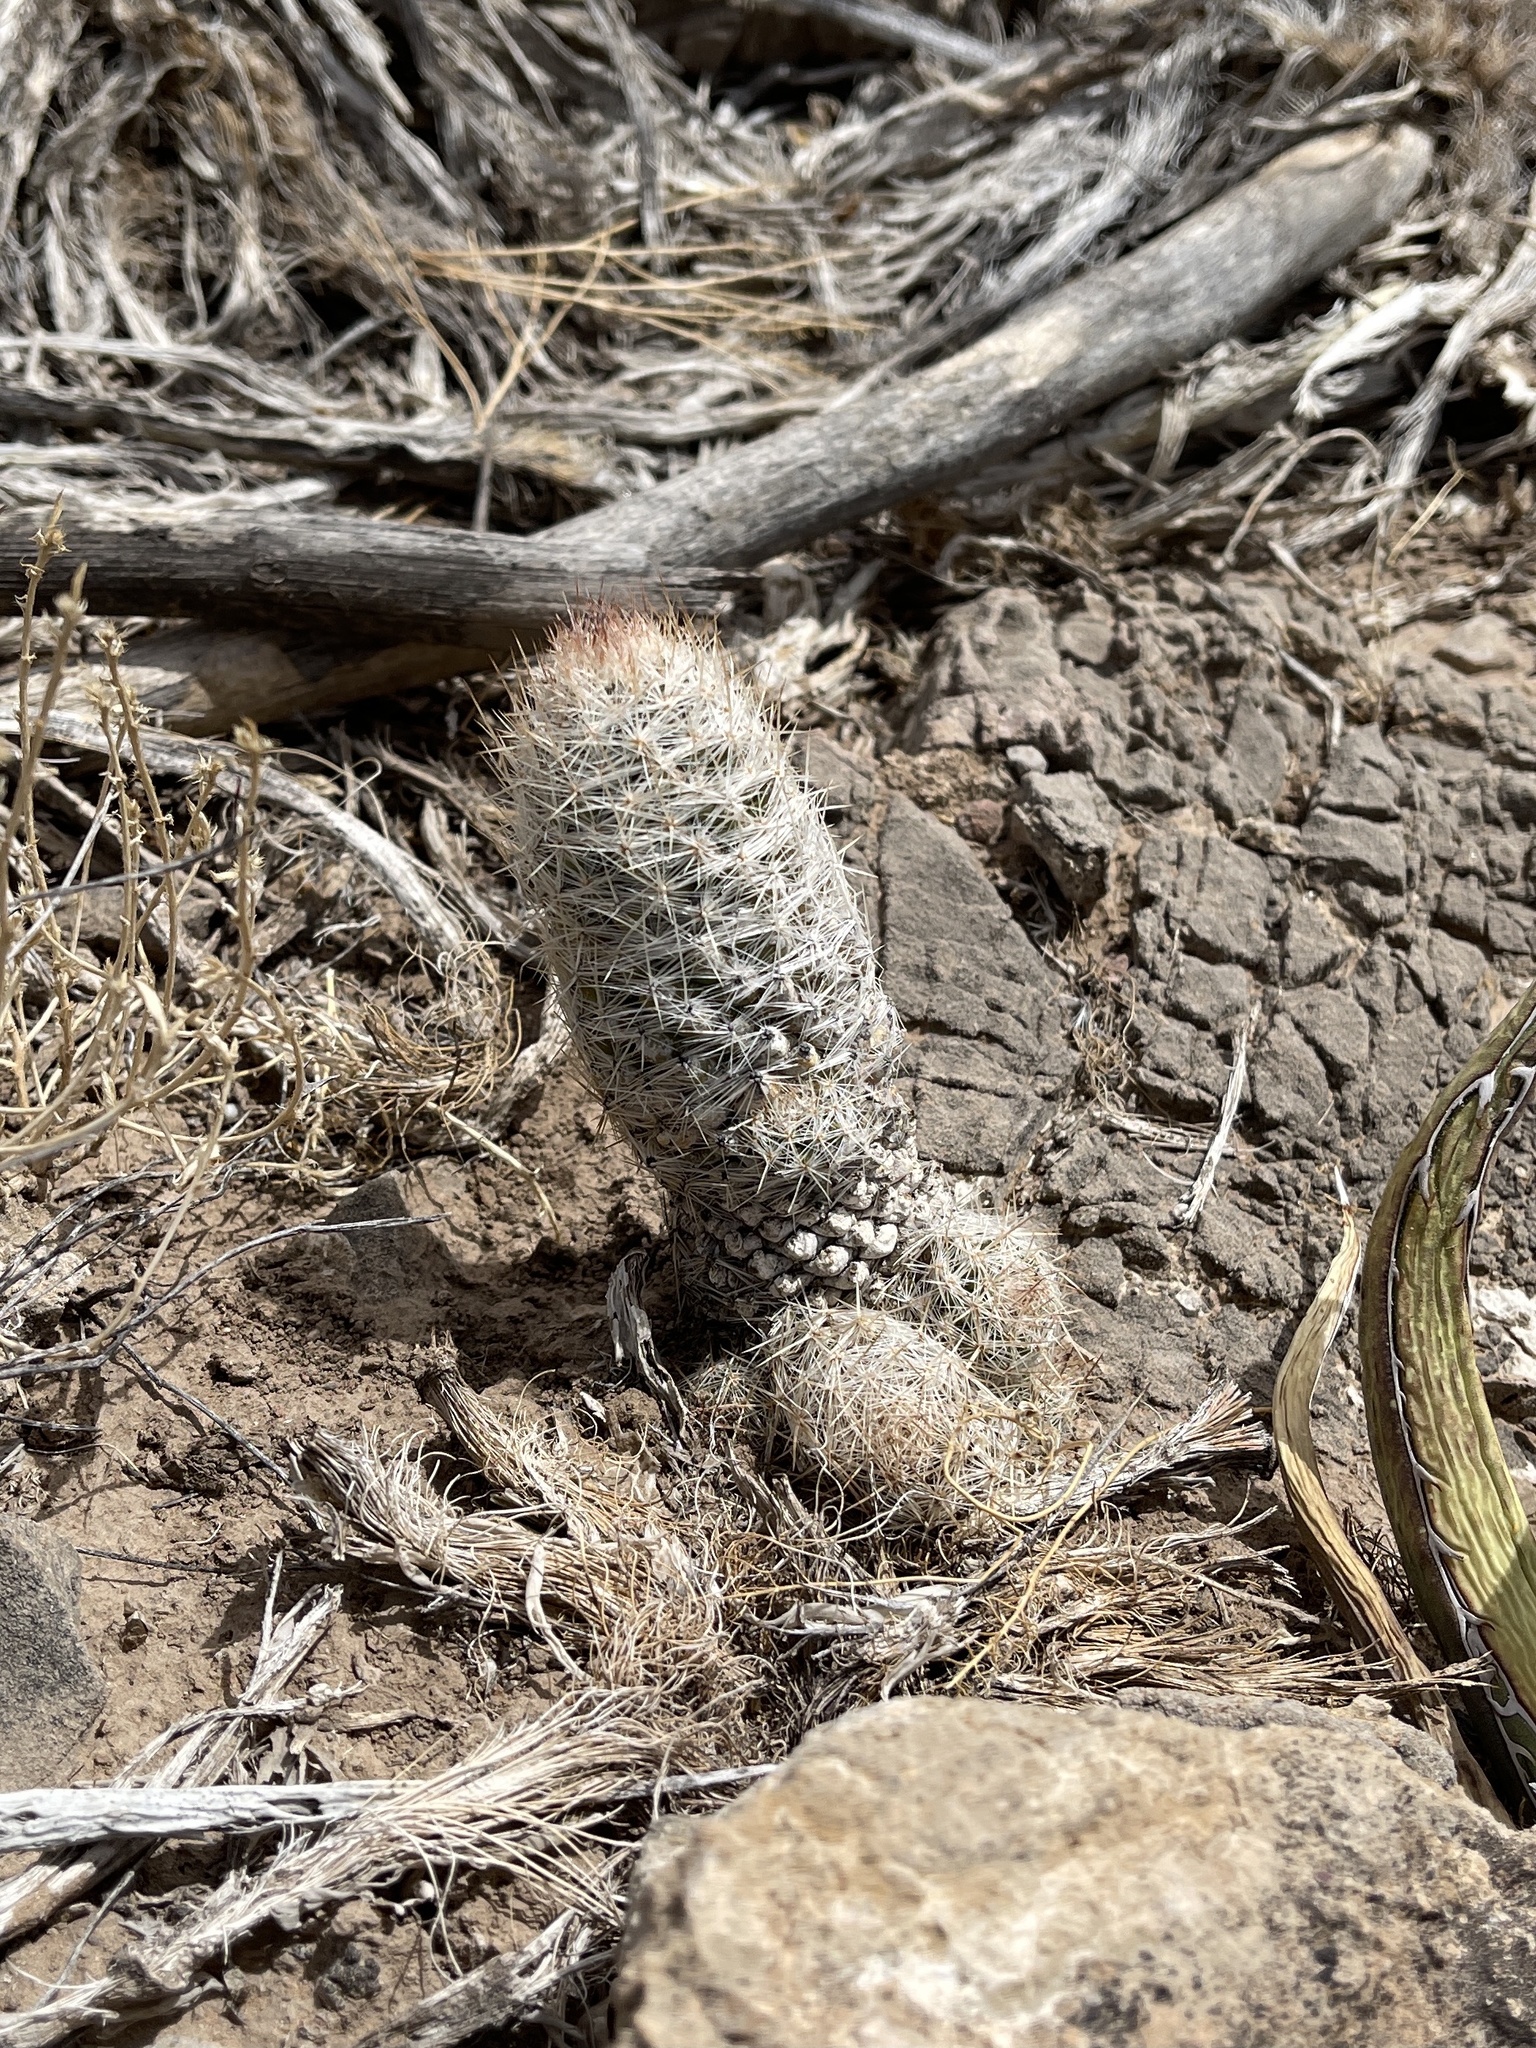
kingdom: Plantae
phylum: Tracheophyta
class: Magnoliopsida
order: Caryophyllales
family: Cactaceae
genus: Pelecyphora
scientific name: Pelecyphora tuberculosa
